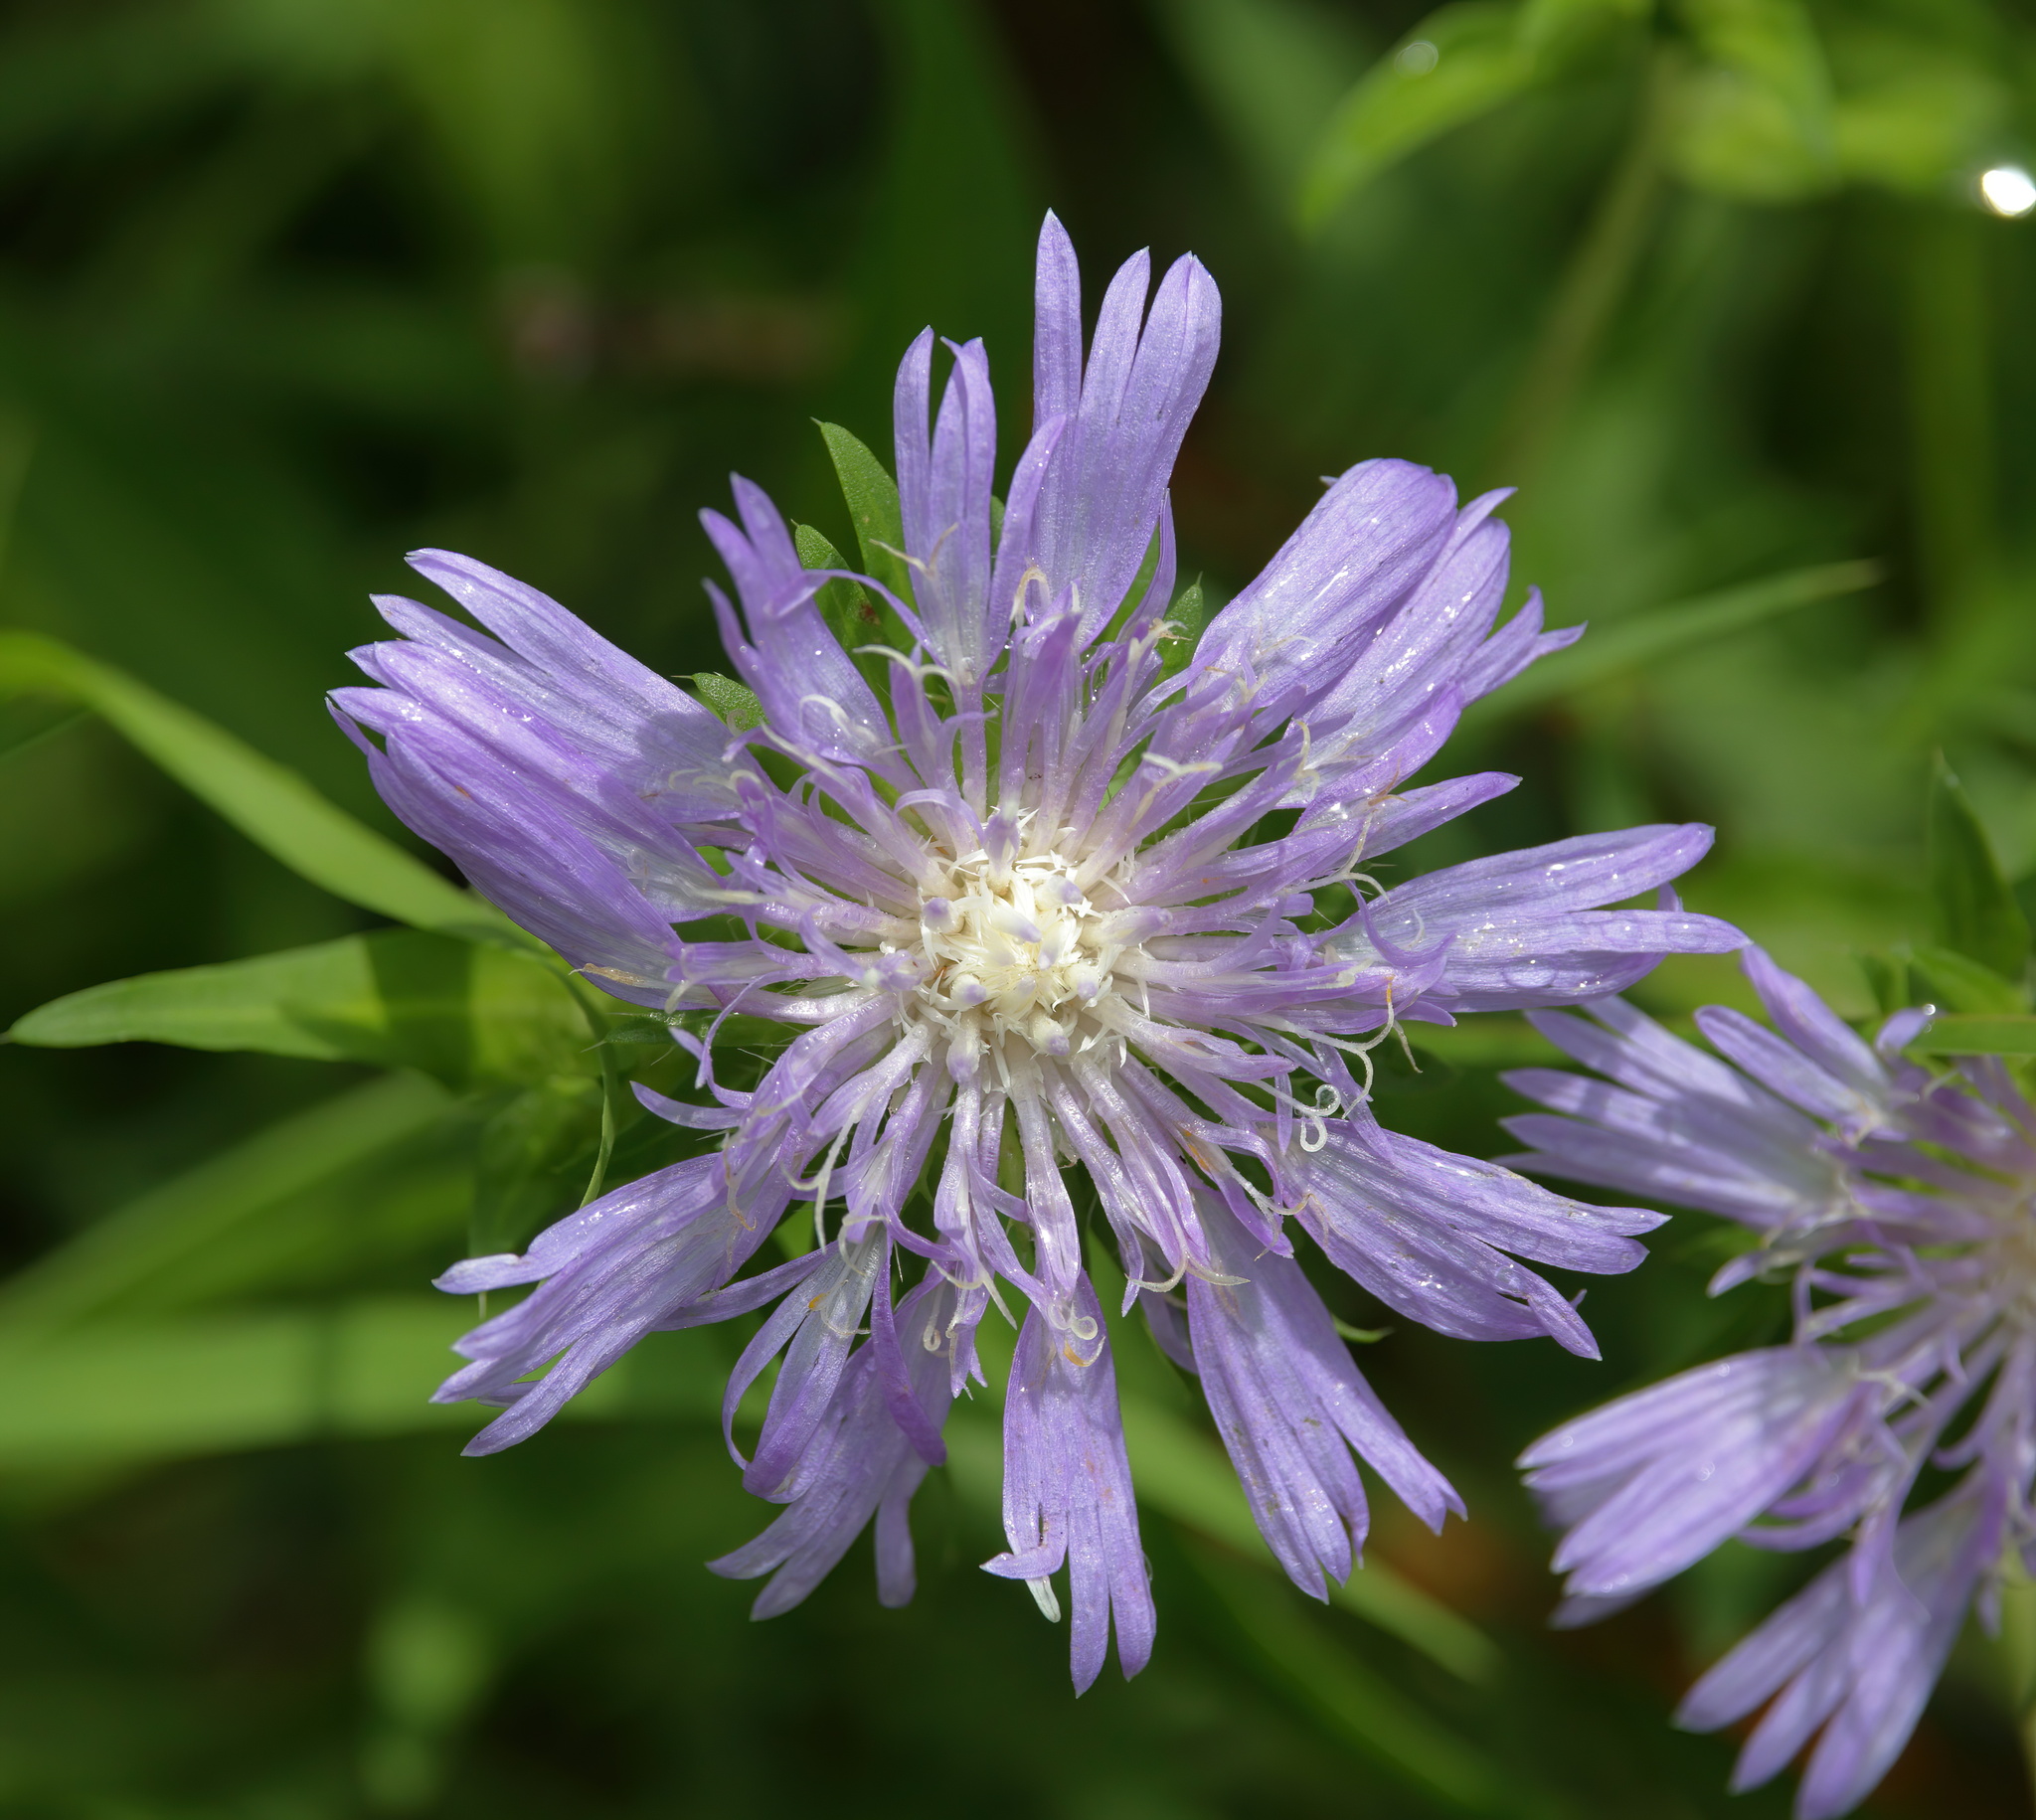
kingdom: Plantae
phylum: Tracheophyta
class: Magnoliopsida
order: Asterales
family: Asteraceae
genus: Stokesia
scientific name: Stokesia laevis
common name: Stokes'-aster
